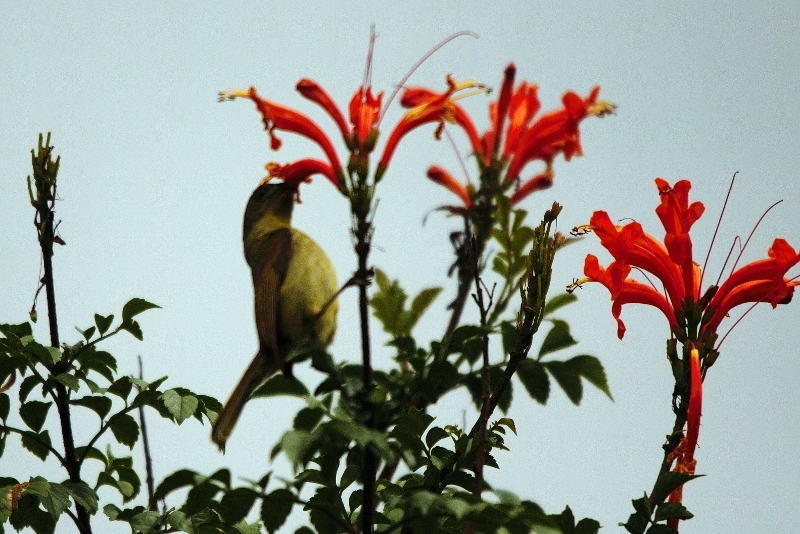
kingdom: Animalia
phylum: Chordata
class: Aves
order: Passeriformes
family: Nectariniidae
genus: Cyanomitra
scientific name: Cyanomitra olivacea
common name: Olive sunbird
